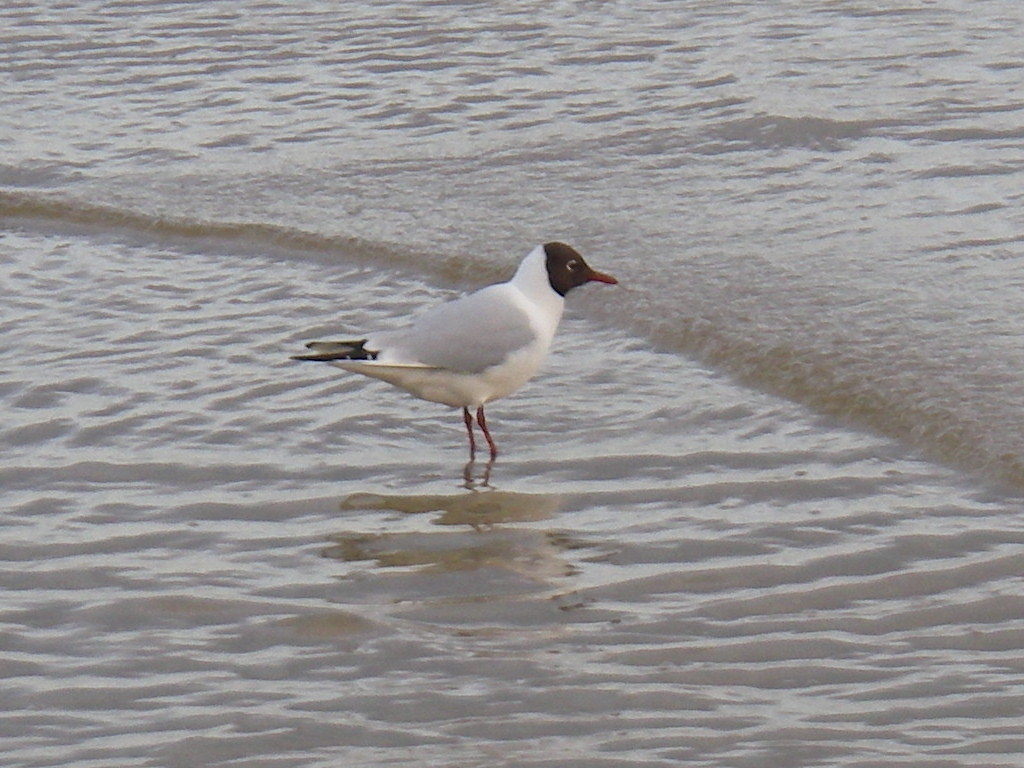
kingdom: Animalia
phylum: Chordata
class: Aves
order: Charadriiformes
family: Laridae
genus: Chroicocephalus
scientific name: Chroicocephalus ridibundus
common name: Black-headed gull
